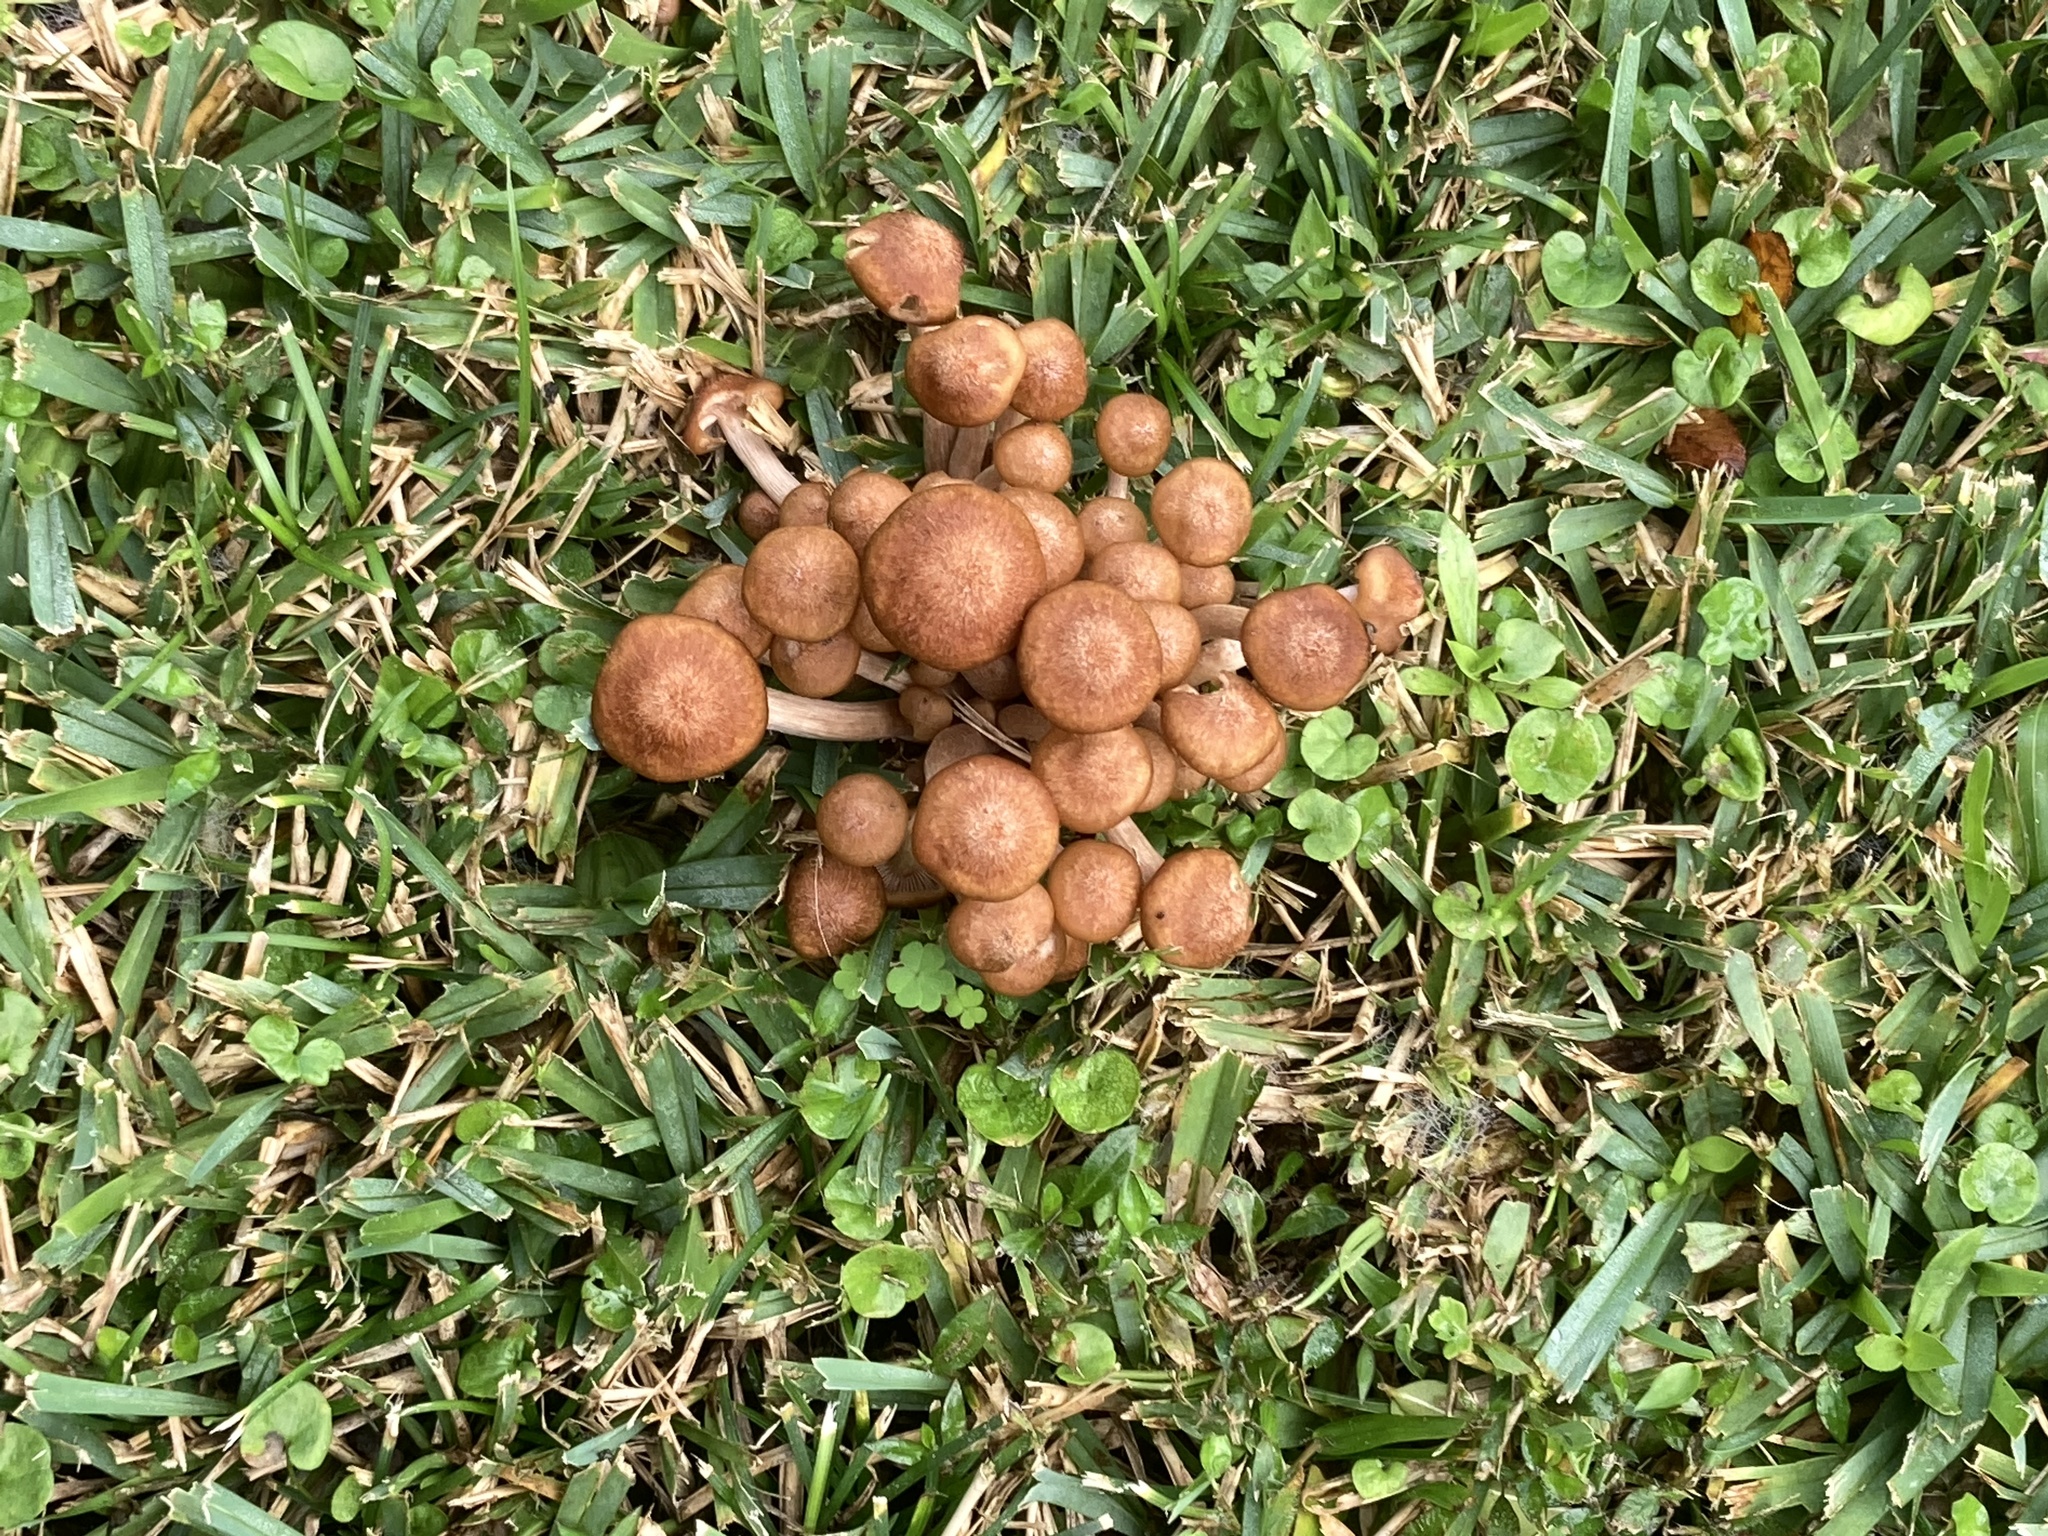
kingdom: Fungi
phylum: Basidiomycota
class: Agaricomycetes
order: Agaricales
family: Physalacriaceae
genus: Desarmillaria
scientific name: Desarmillaria caespitosa
